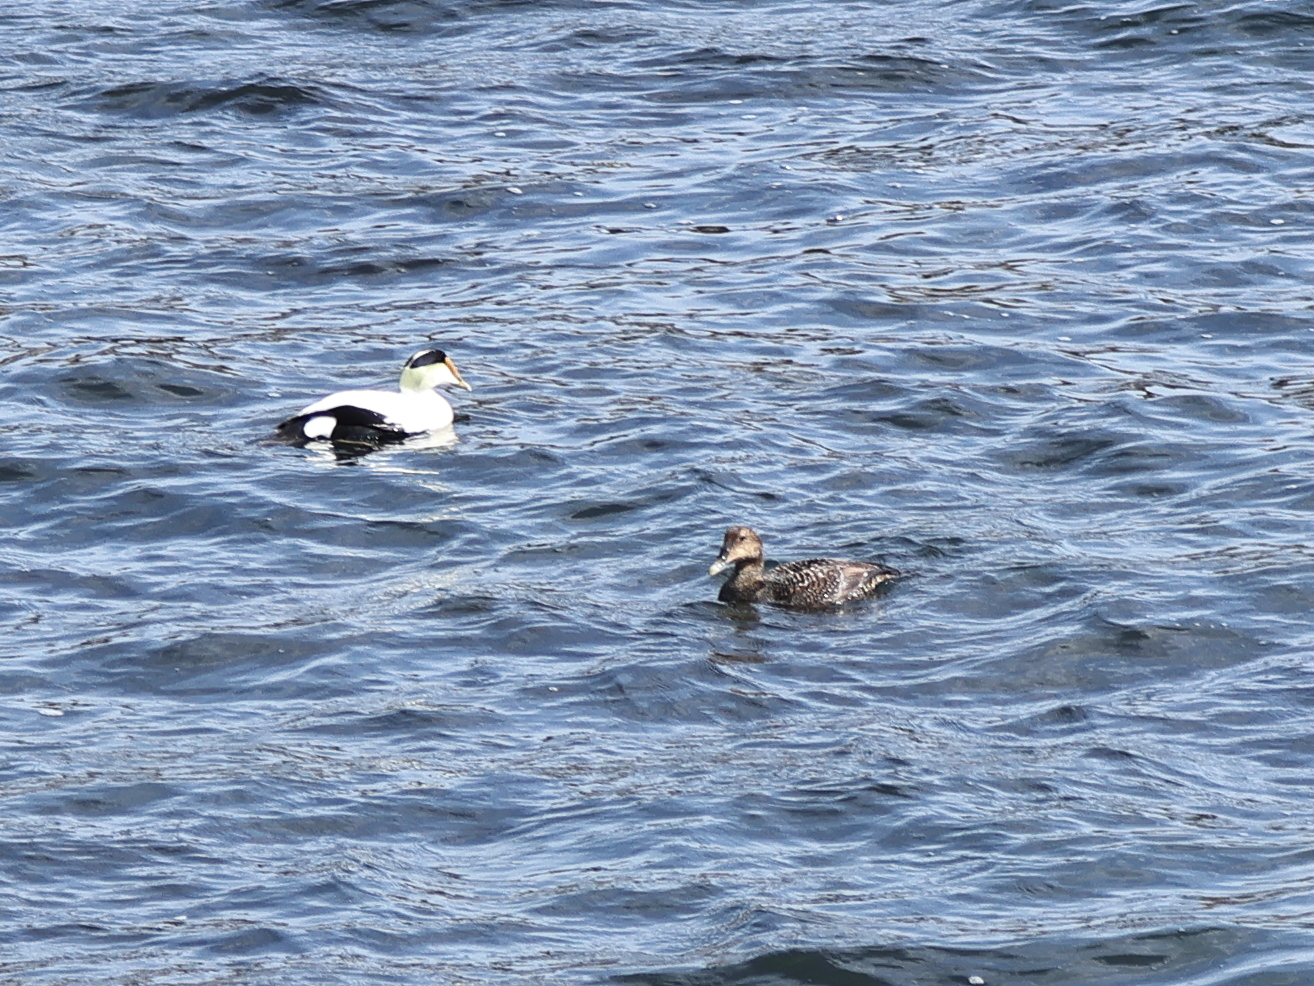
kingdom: Animalia
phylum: Chordata
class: Aves
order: Anseriformes
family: Anatidae
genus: Somateria
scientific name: Somateria mollissima
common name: Common eider
